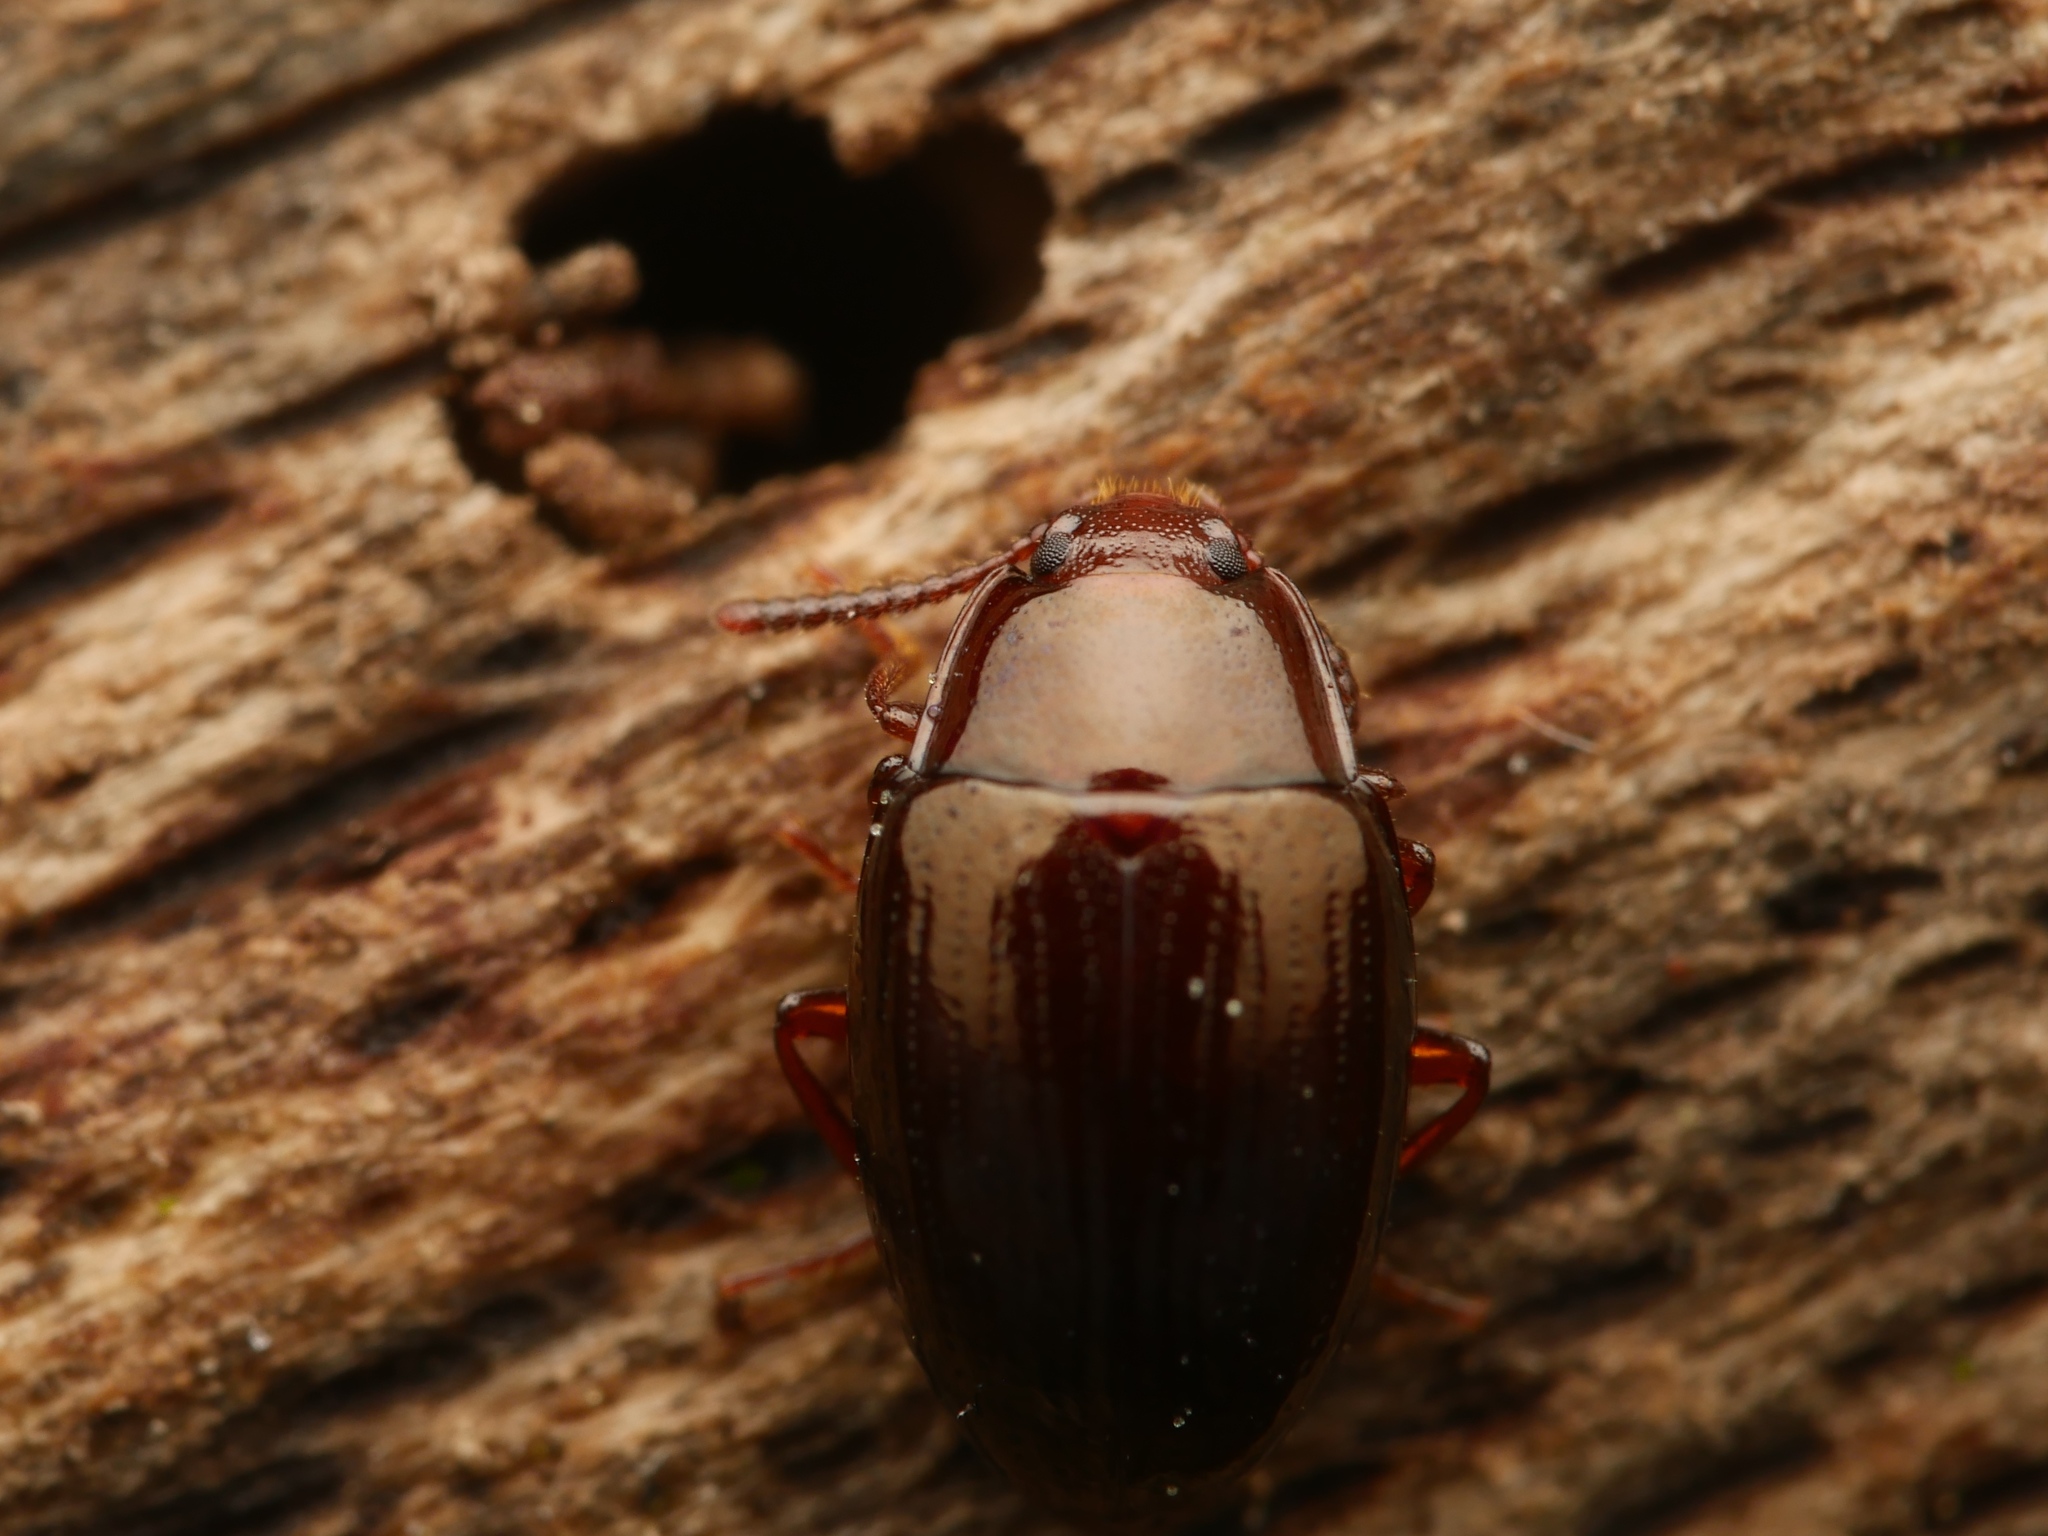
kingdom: Animalia
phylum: Arthropoda
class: Insecta
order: Coleoptera
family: Tenebrionidae
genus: Blapstinus
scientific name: Blapstinus metallicus
